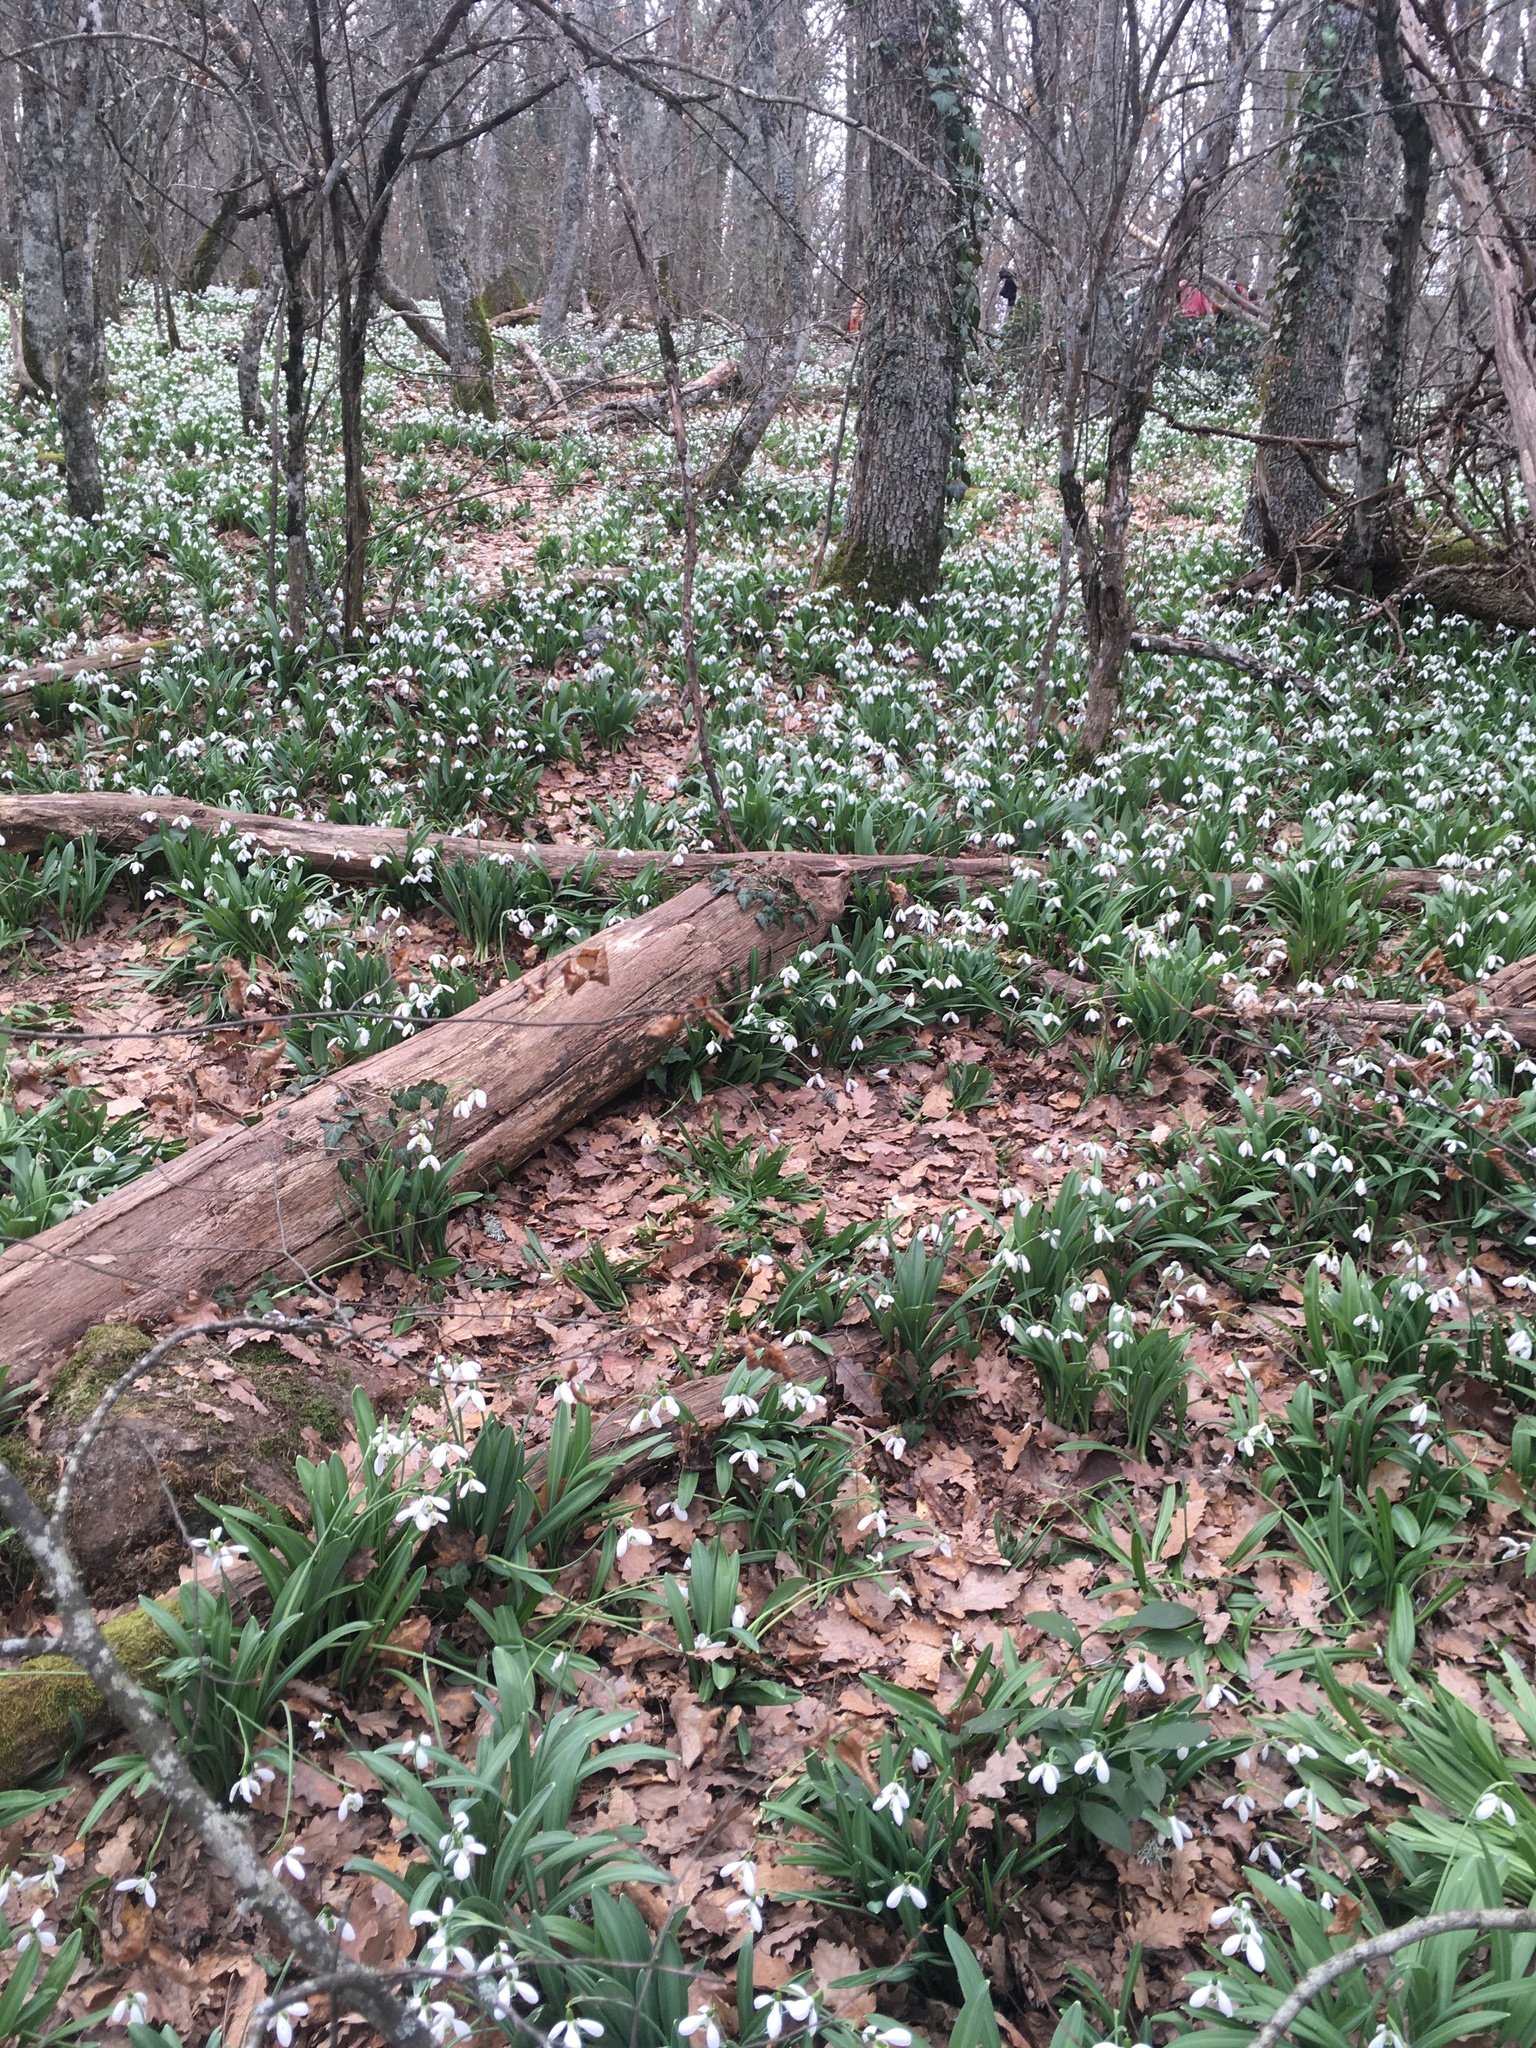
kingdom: Plantae
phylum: Tracheophyta
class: Liliopsida
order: Asparagales
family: Amaryllidaceae
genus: Galanthus
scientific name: Galanthus plicatus
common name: Pleated snowdrop
